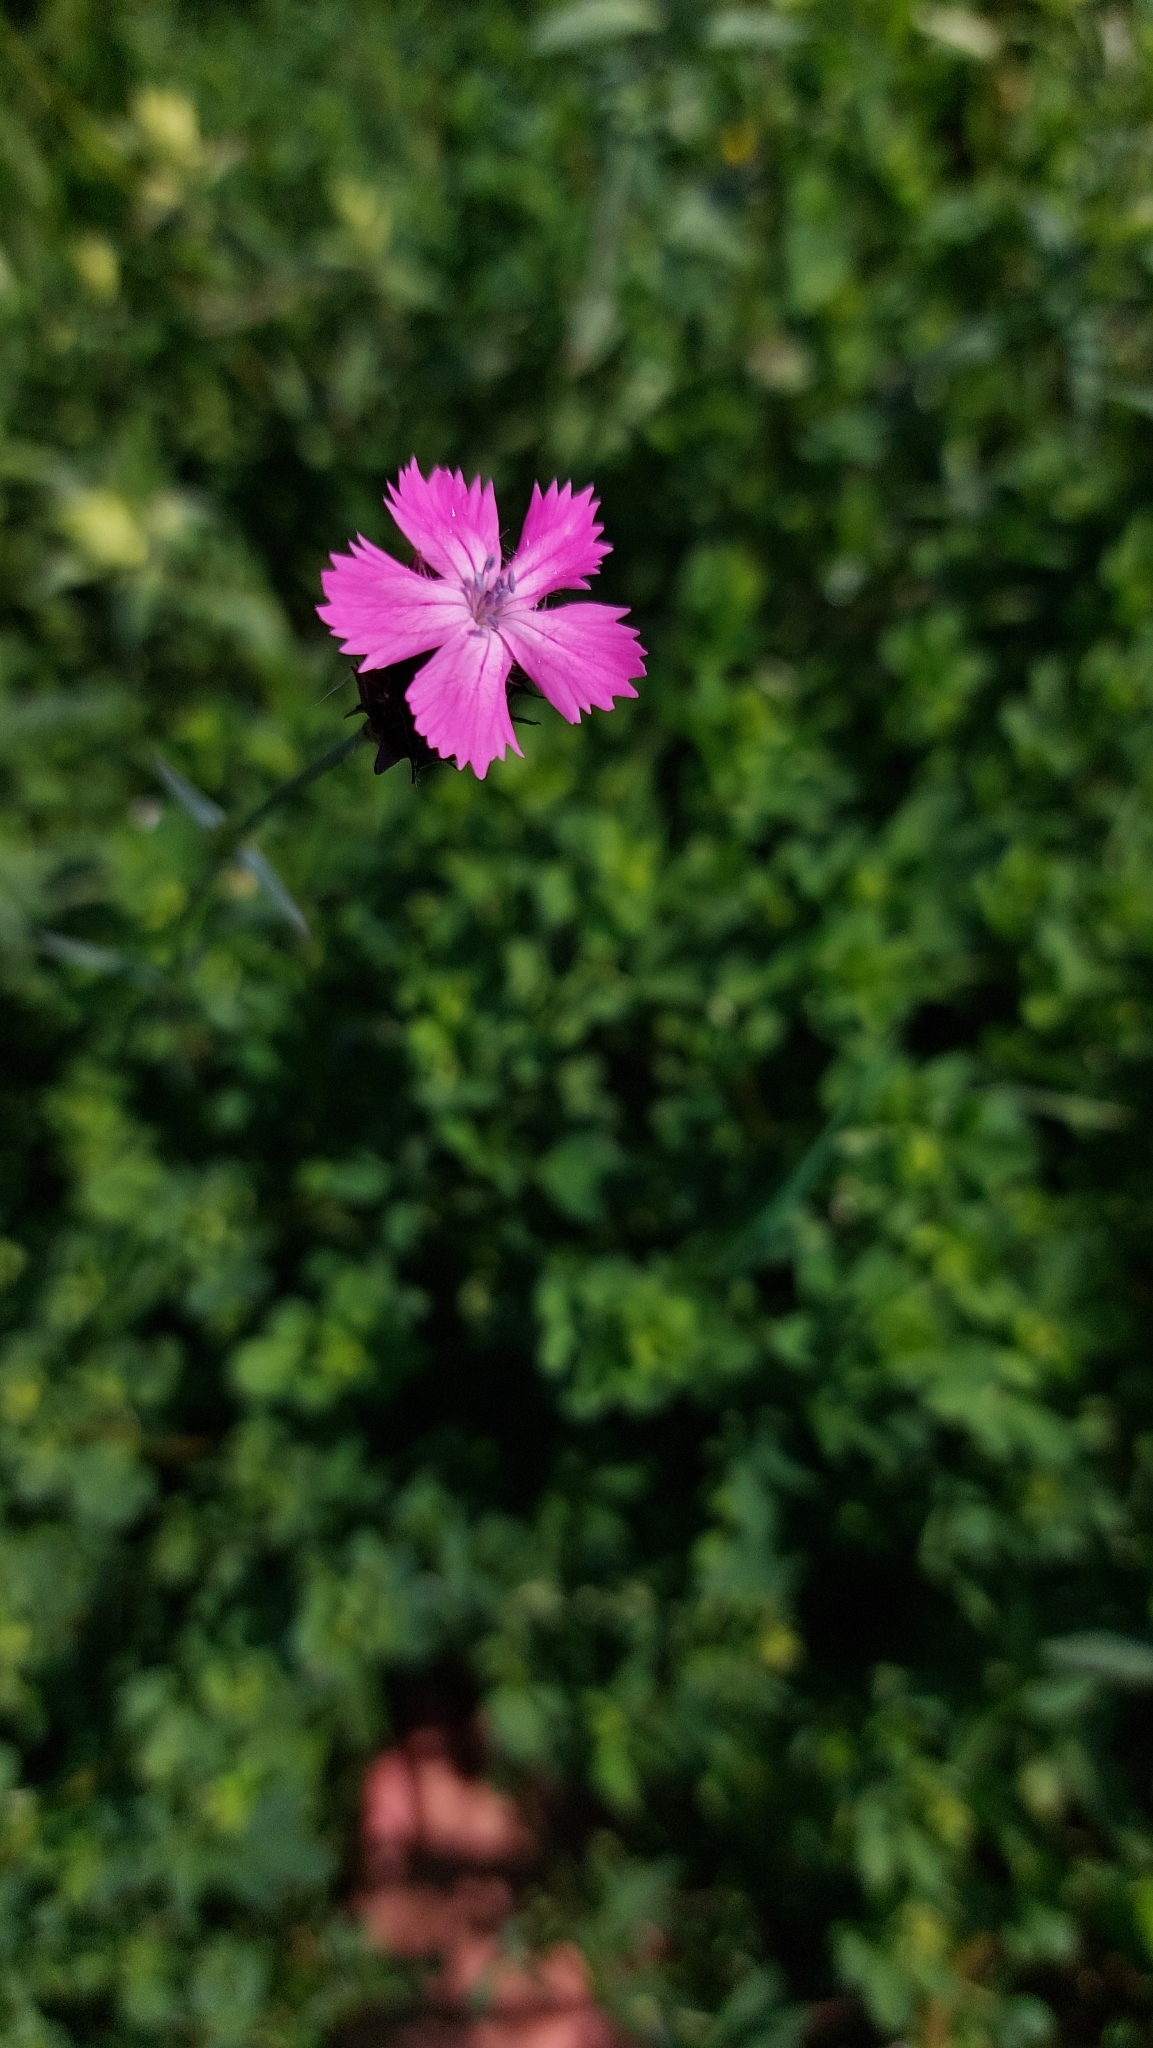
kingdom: Plantae
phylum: Tracheophyta
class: Magnoliopsida
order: Caryophyllales
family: Caryophyllaceae
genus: Dianthus
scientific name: Dianthus carthusianorum
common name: Carthusian pink
